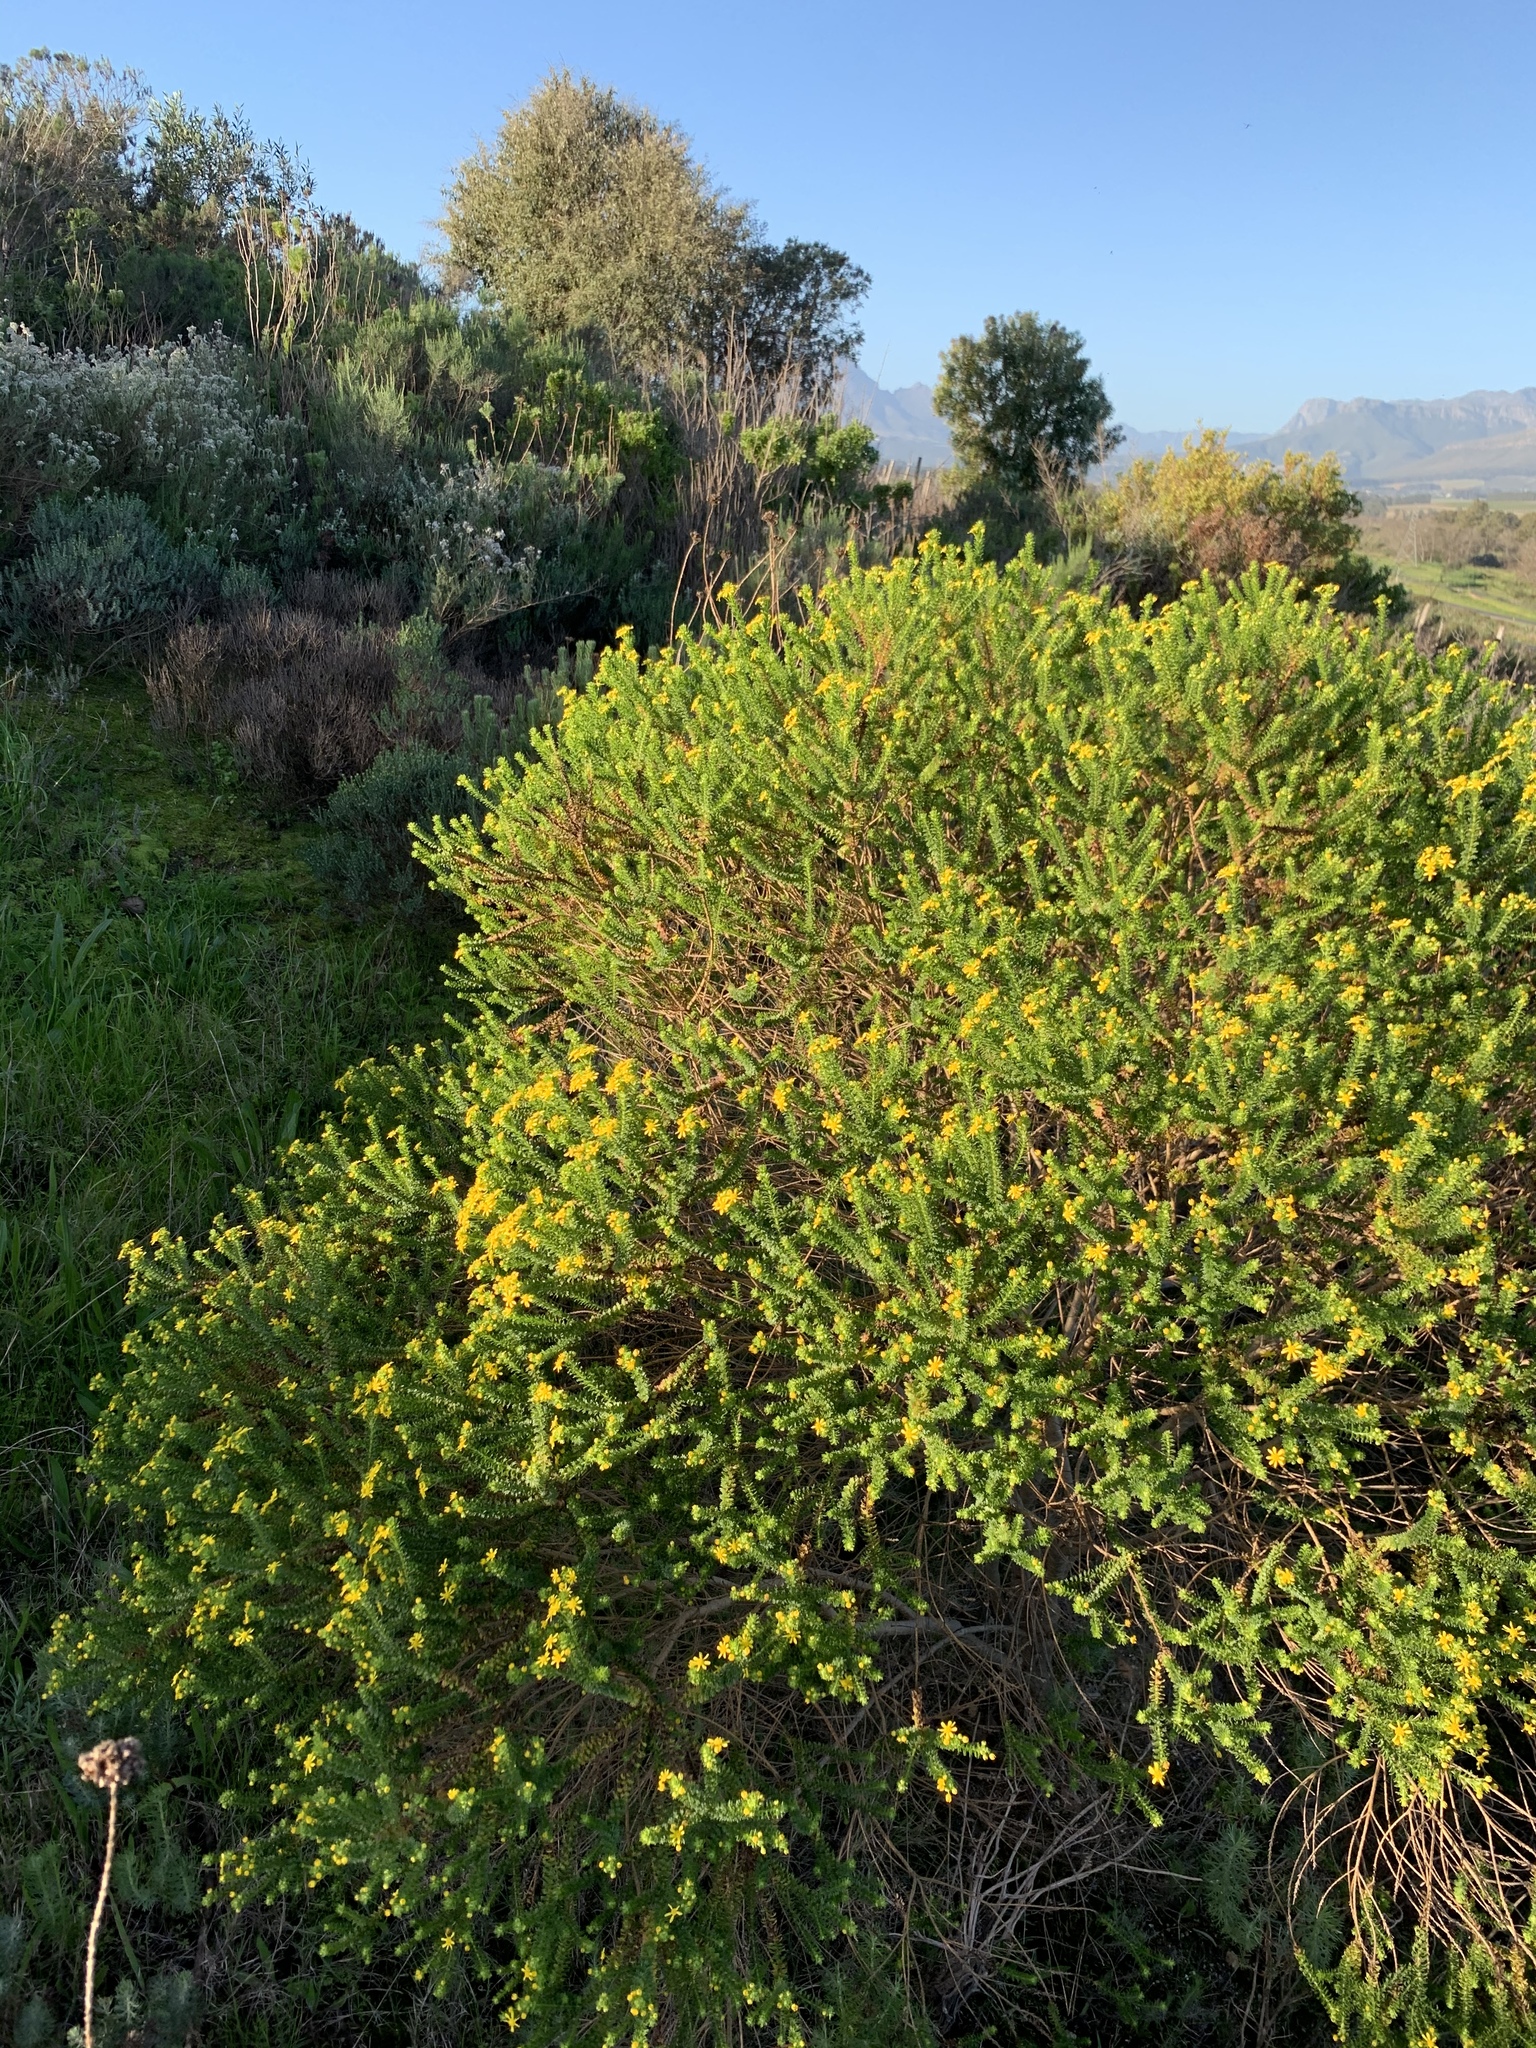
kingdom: Plantae
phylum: Tracheophyta
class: Magnoliopsida
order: Asterales
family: Asteraceae
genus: Euryops
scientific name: Euryops virgineus
